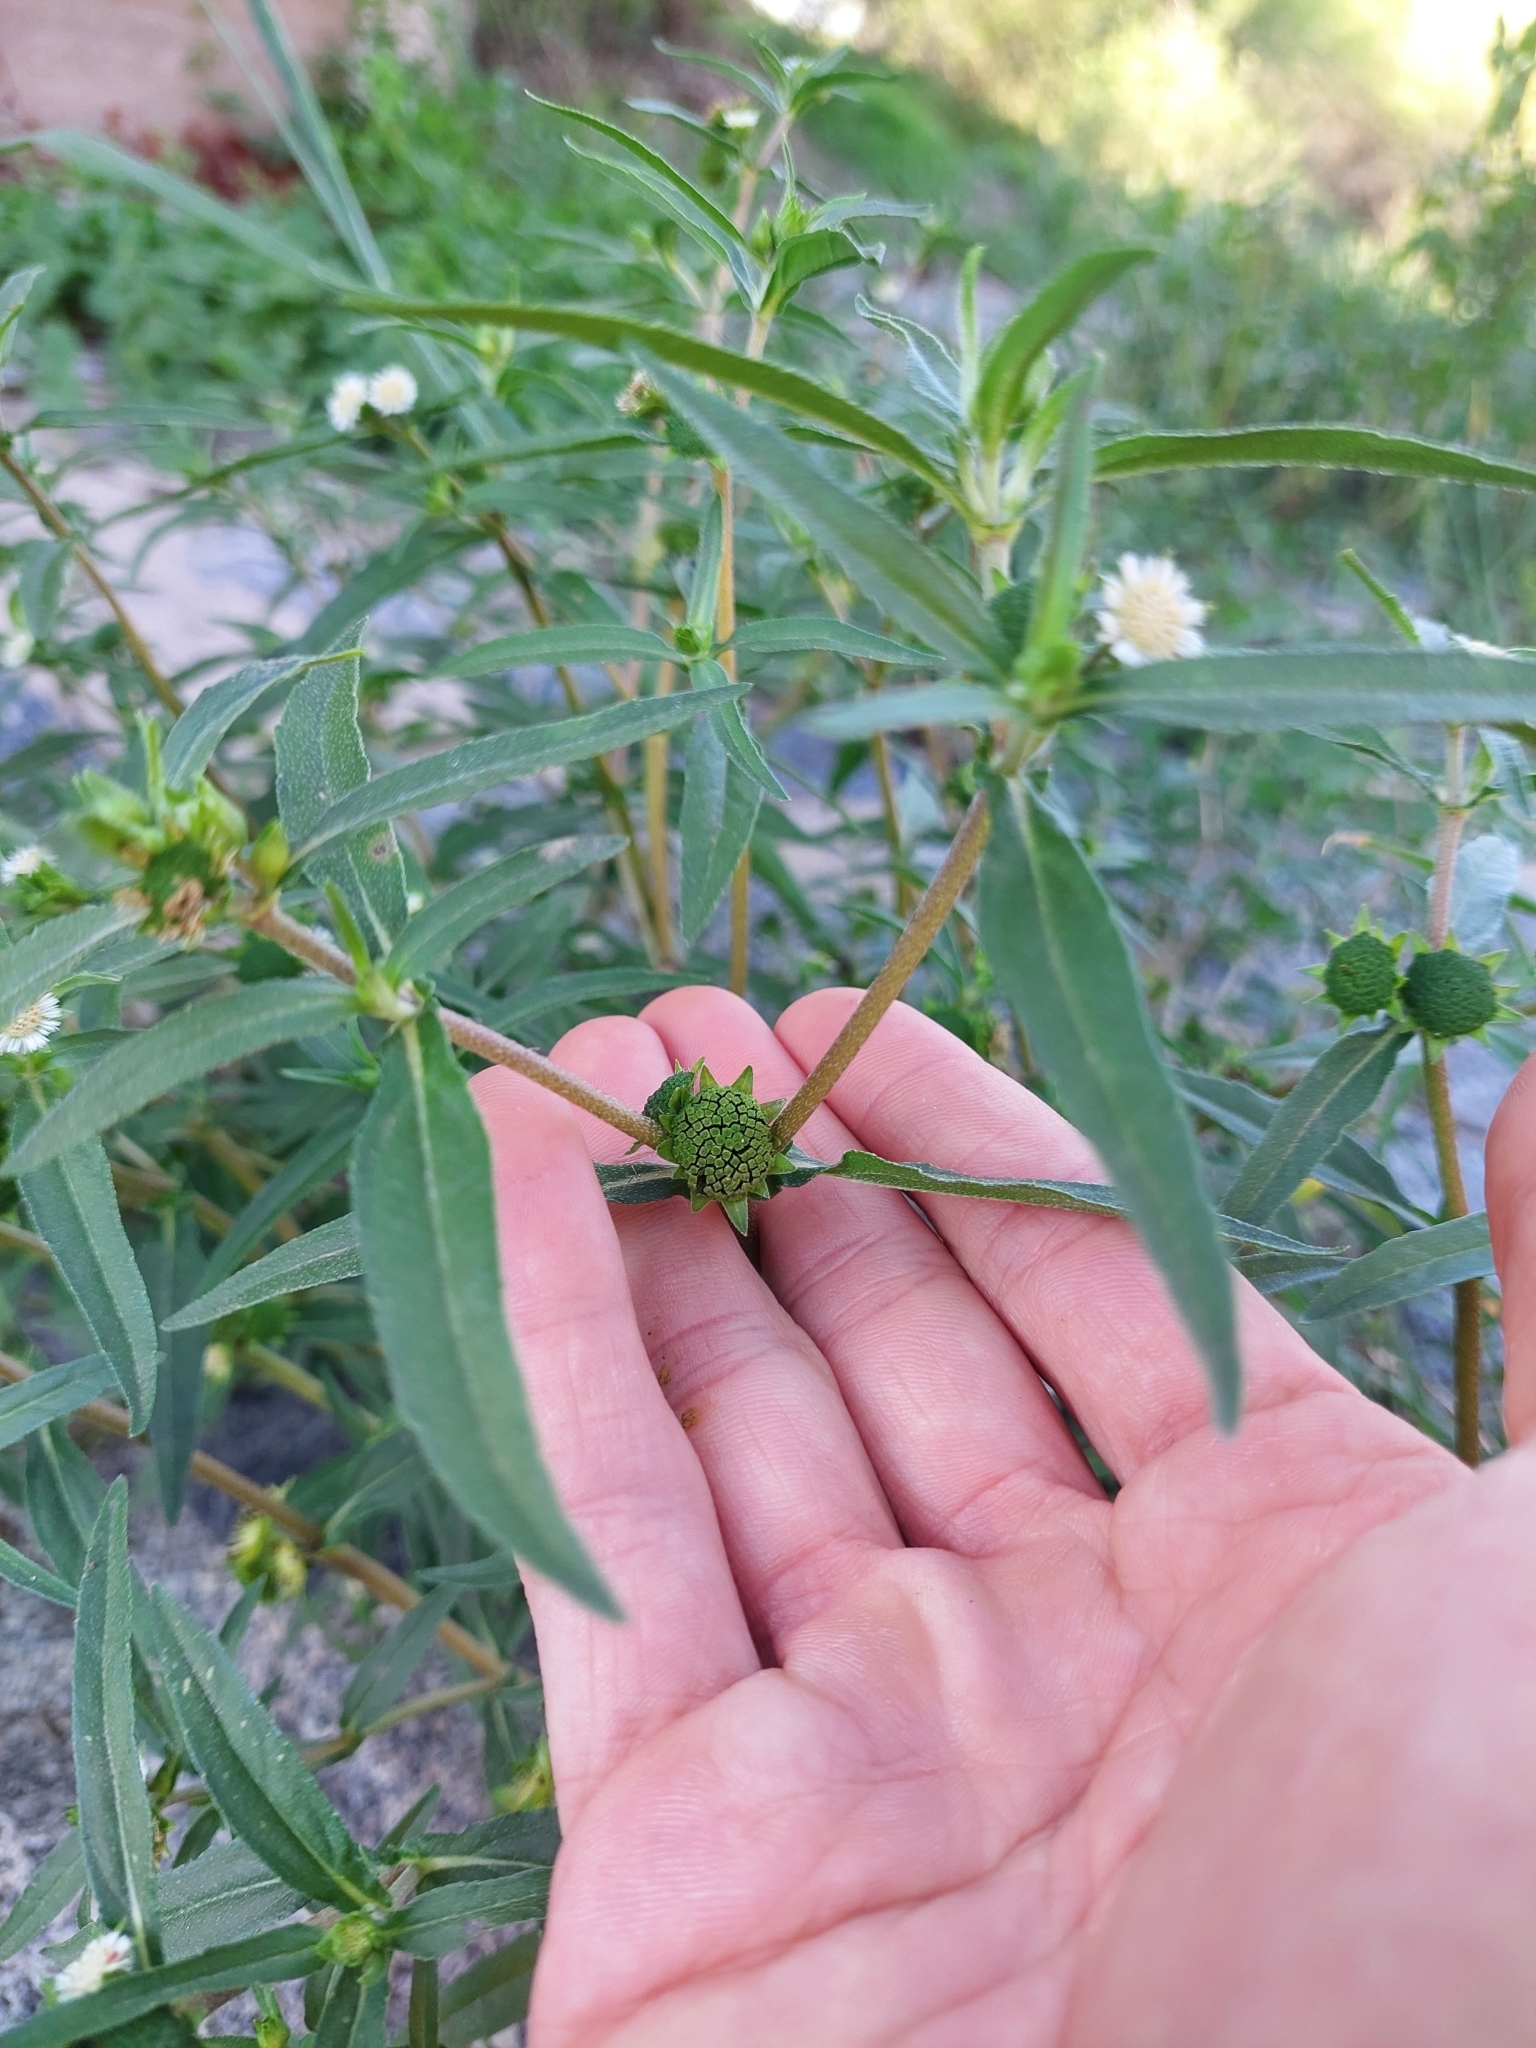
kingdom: Plantae
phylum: Tracheophyta
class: Magnoliopsida
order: Asterales
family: Asteraceae
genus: Eclipta
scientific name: Eclipta prostrata
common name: False daisy
